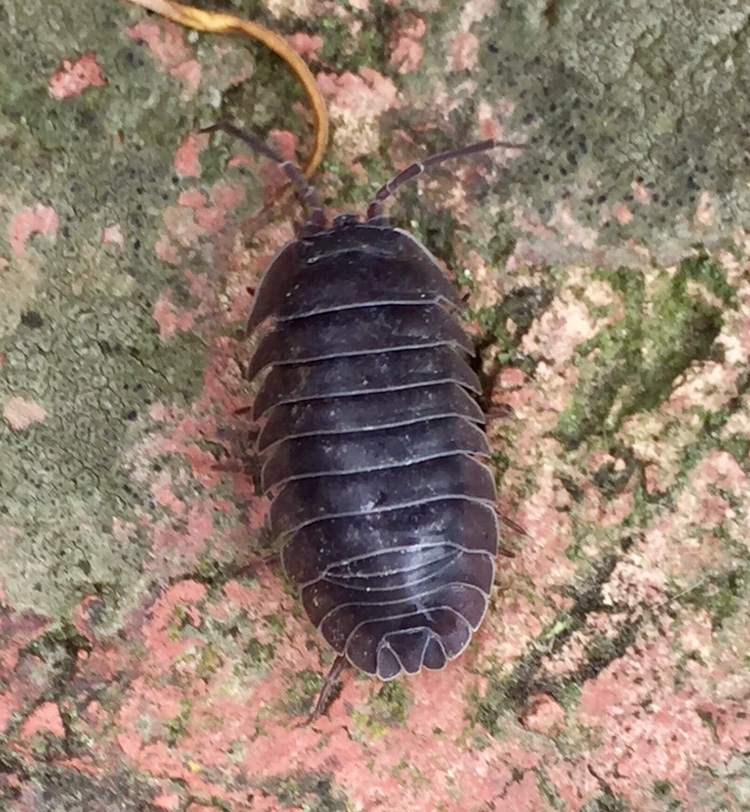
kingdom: Animalia
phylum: Arthropoda
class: Malacostraca
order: Isopoda
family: Armadillidiidae
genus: Armadillidium
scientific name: Armadillidium nasatum
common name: Isopod
